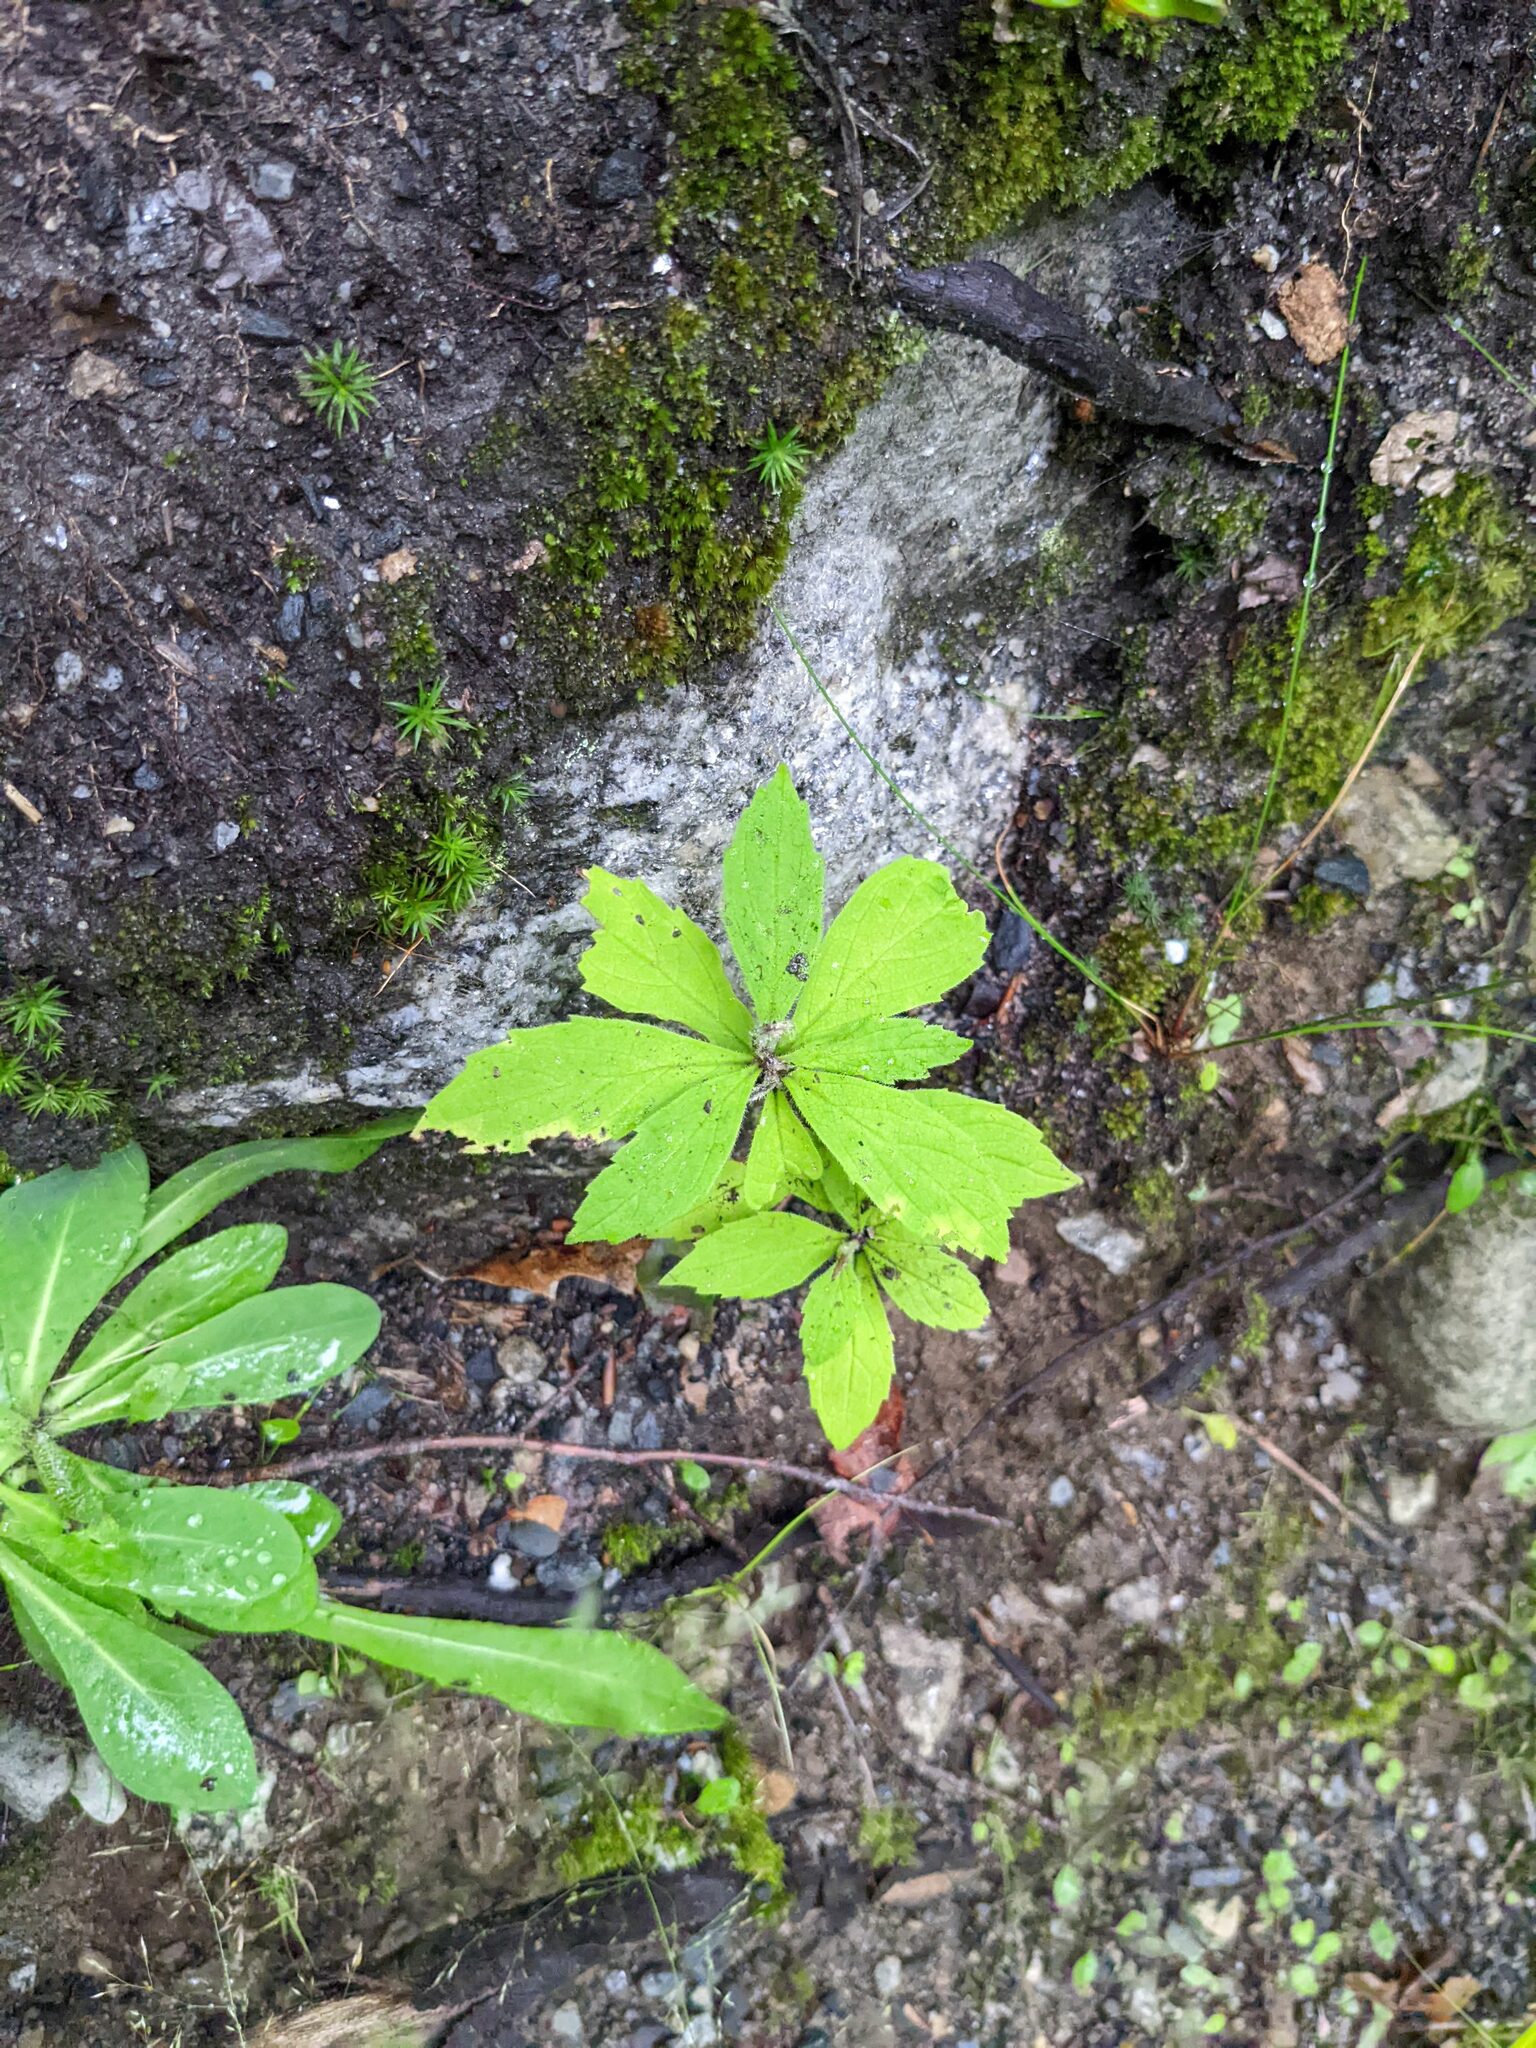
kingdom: Plantae
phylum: Tracheophyta
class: Magnoliopsida
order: Asterales
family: Asteraceae
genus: Oclemena
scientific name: Oclemena acuminata
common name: Mountain aster
